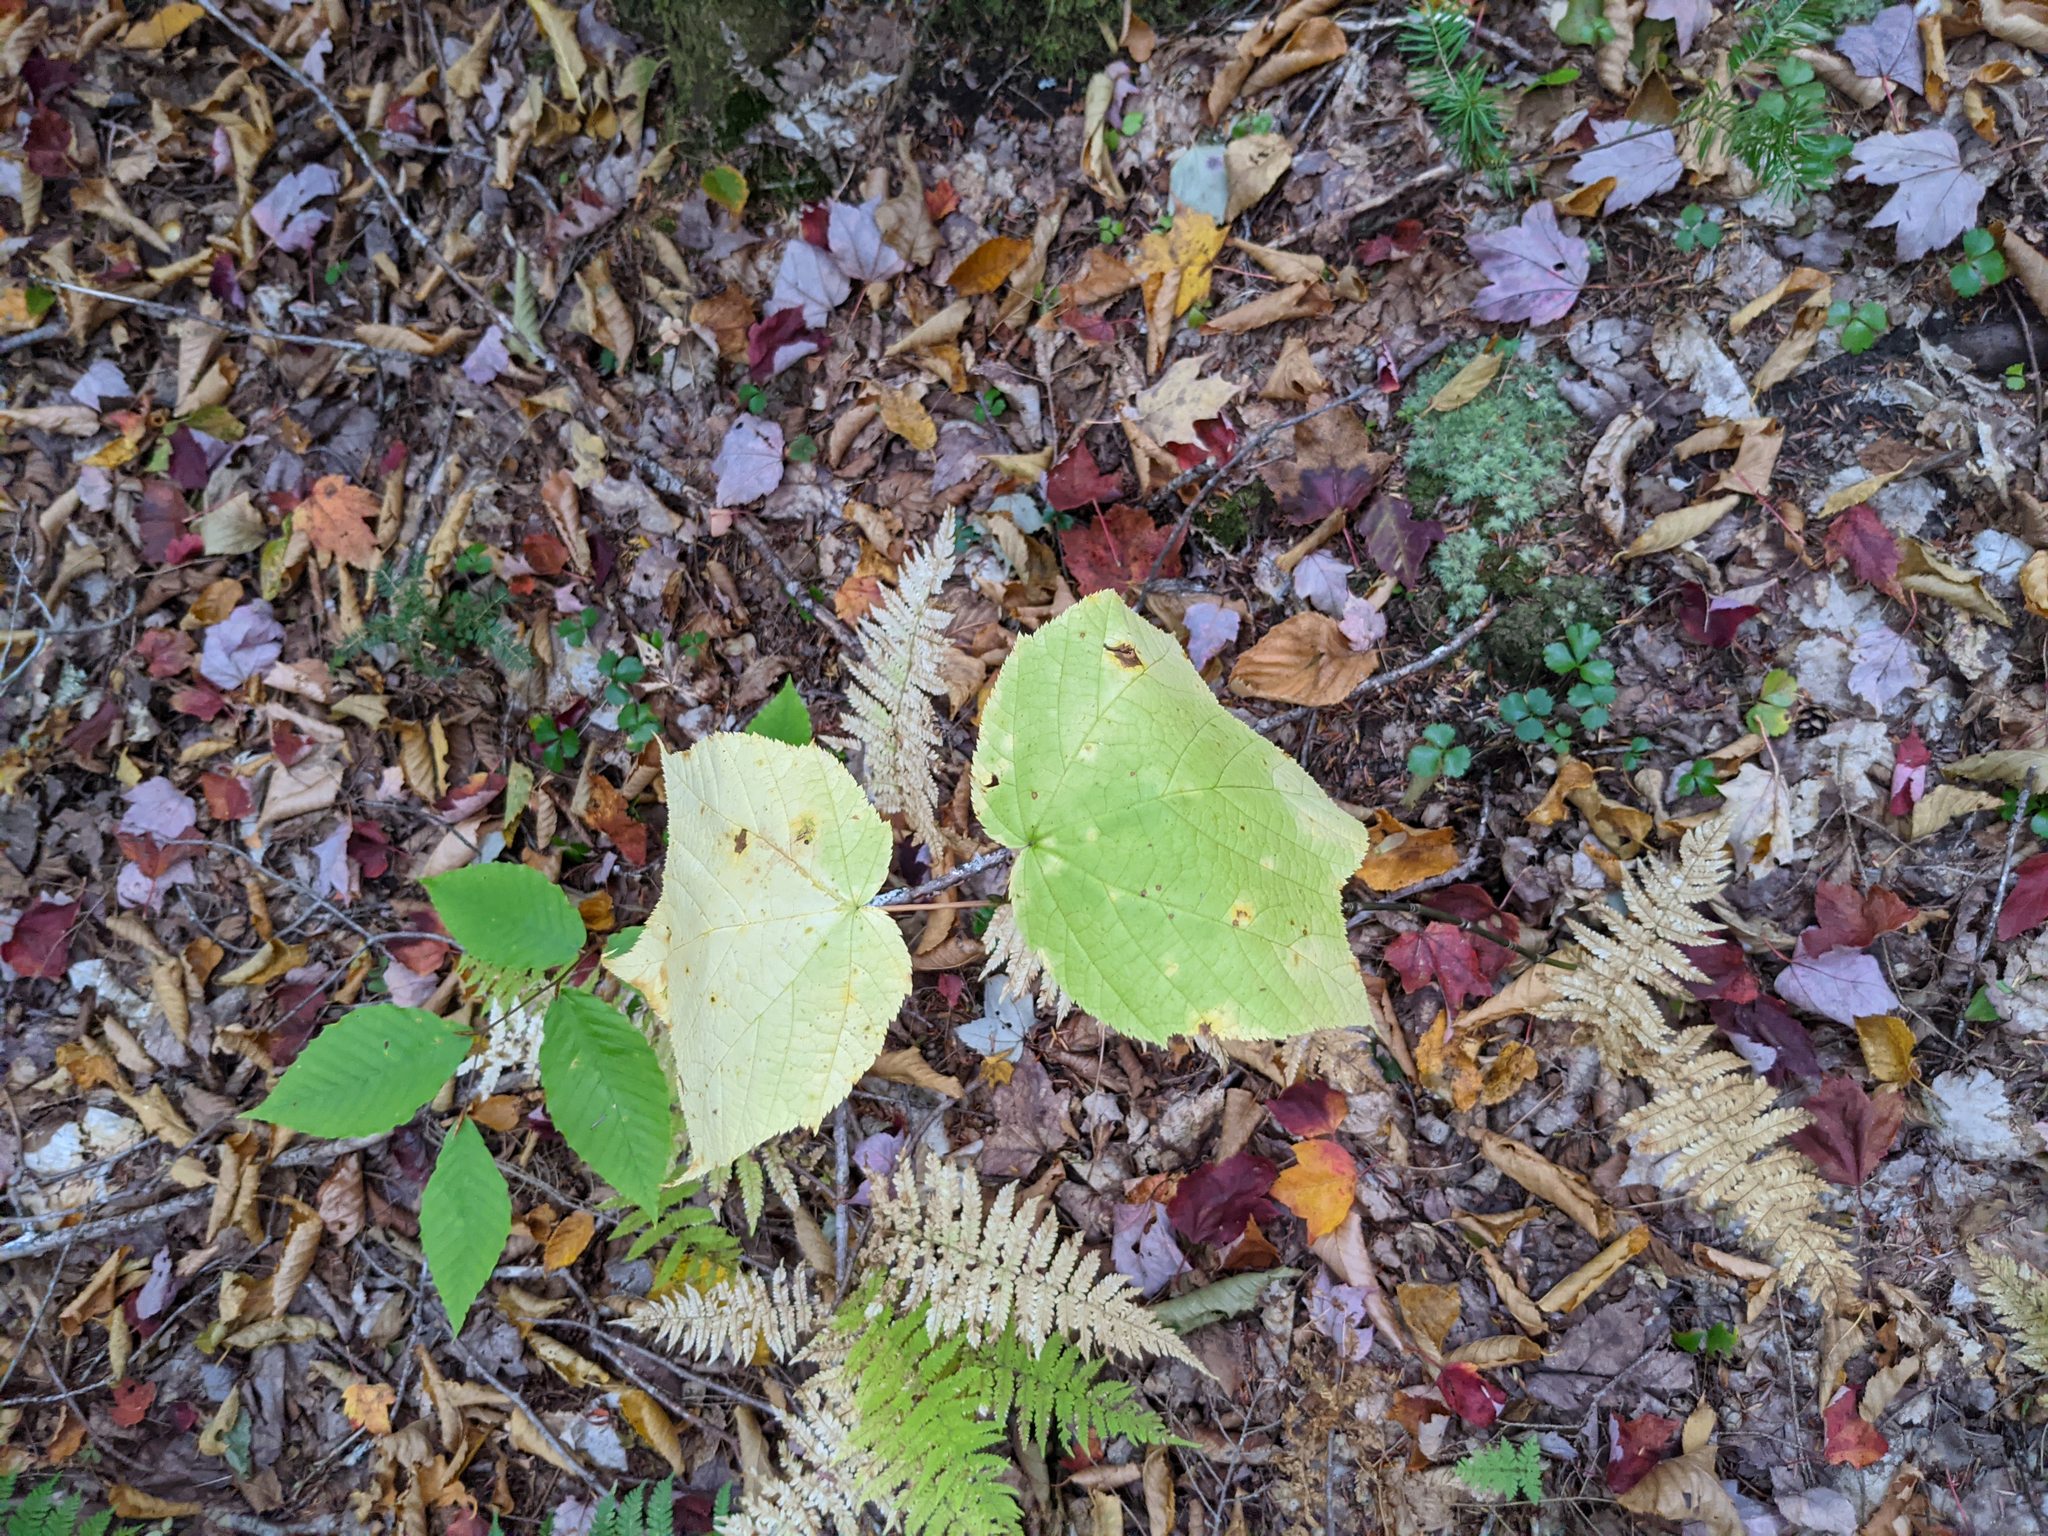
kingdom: Plantae
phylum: Tracheophyta
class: Magnoliopsida
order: Sapindales
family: Sapindaceae
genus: Acer
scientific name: Acer pensylvanicum
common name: Moosewood
